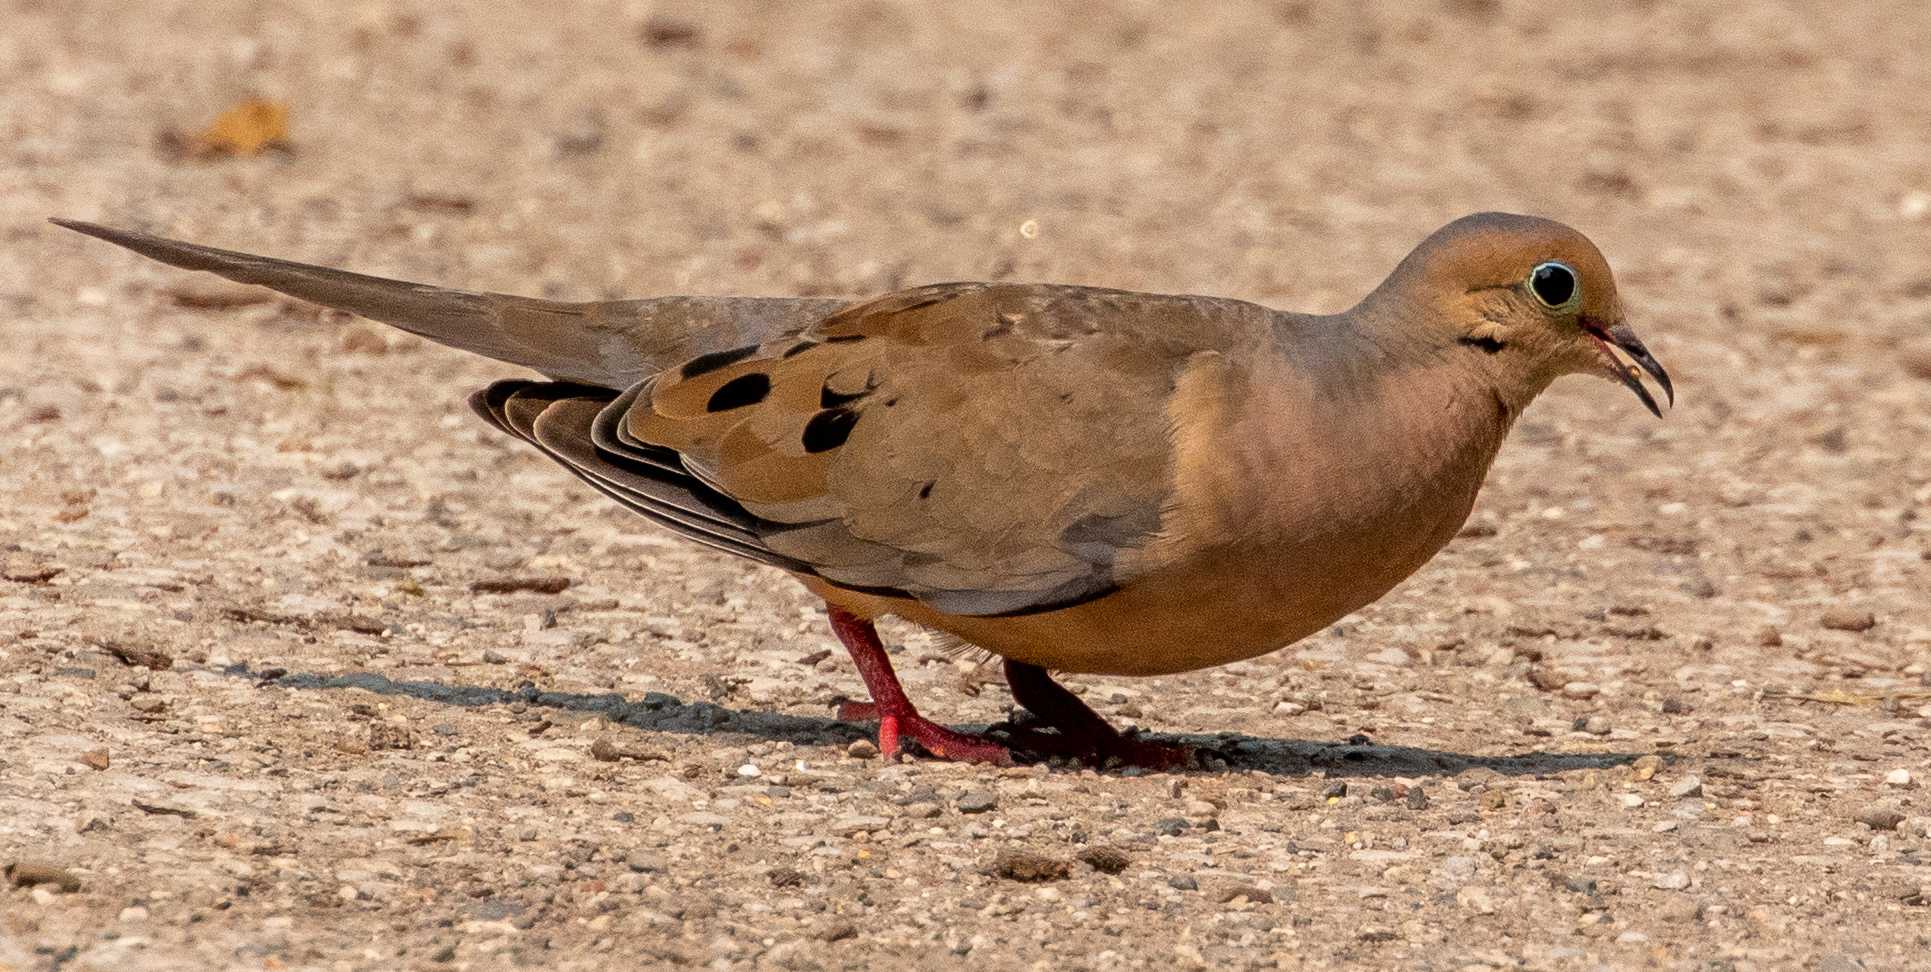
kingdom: Animalia
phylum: Chordata
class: Aves
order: Columbiformes
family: Columbidae
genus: Zenaida
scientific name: Zenaida macroura
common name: Mourning dove
